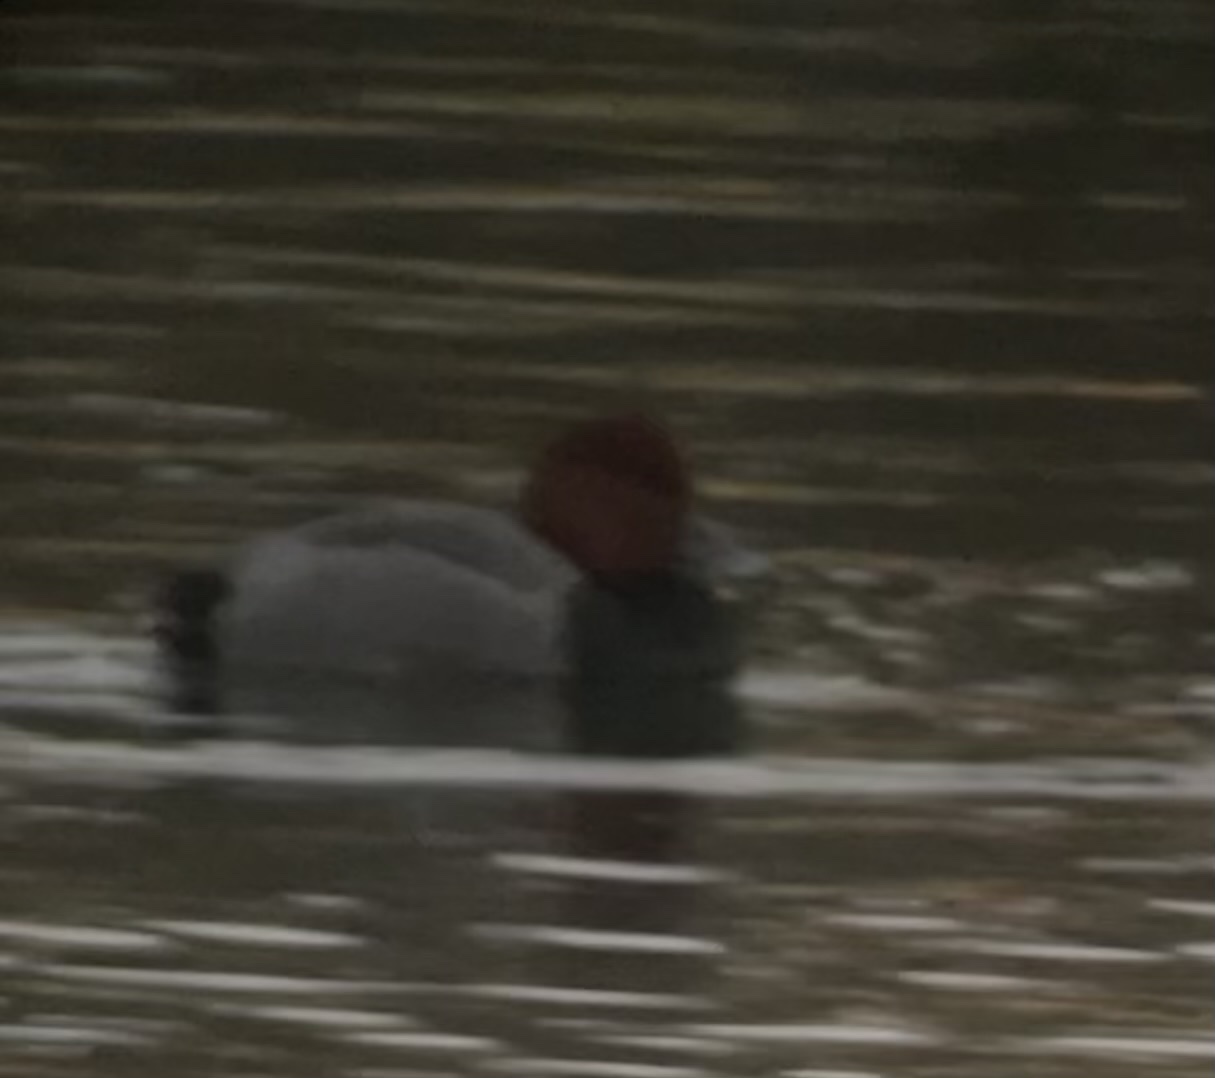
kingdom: Animalia
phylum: Chordata
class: Aves
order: Anseriformes
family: Anatidae
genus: Aythya
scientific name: Aythya americana
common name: Redhead
